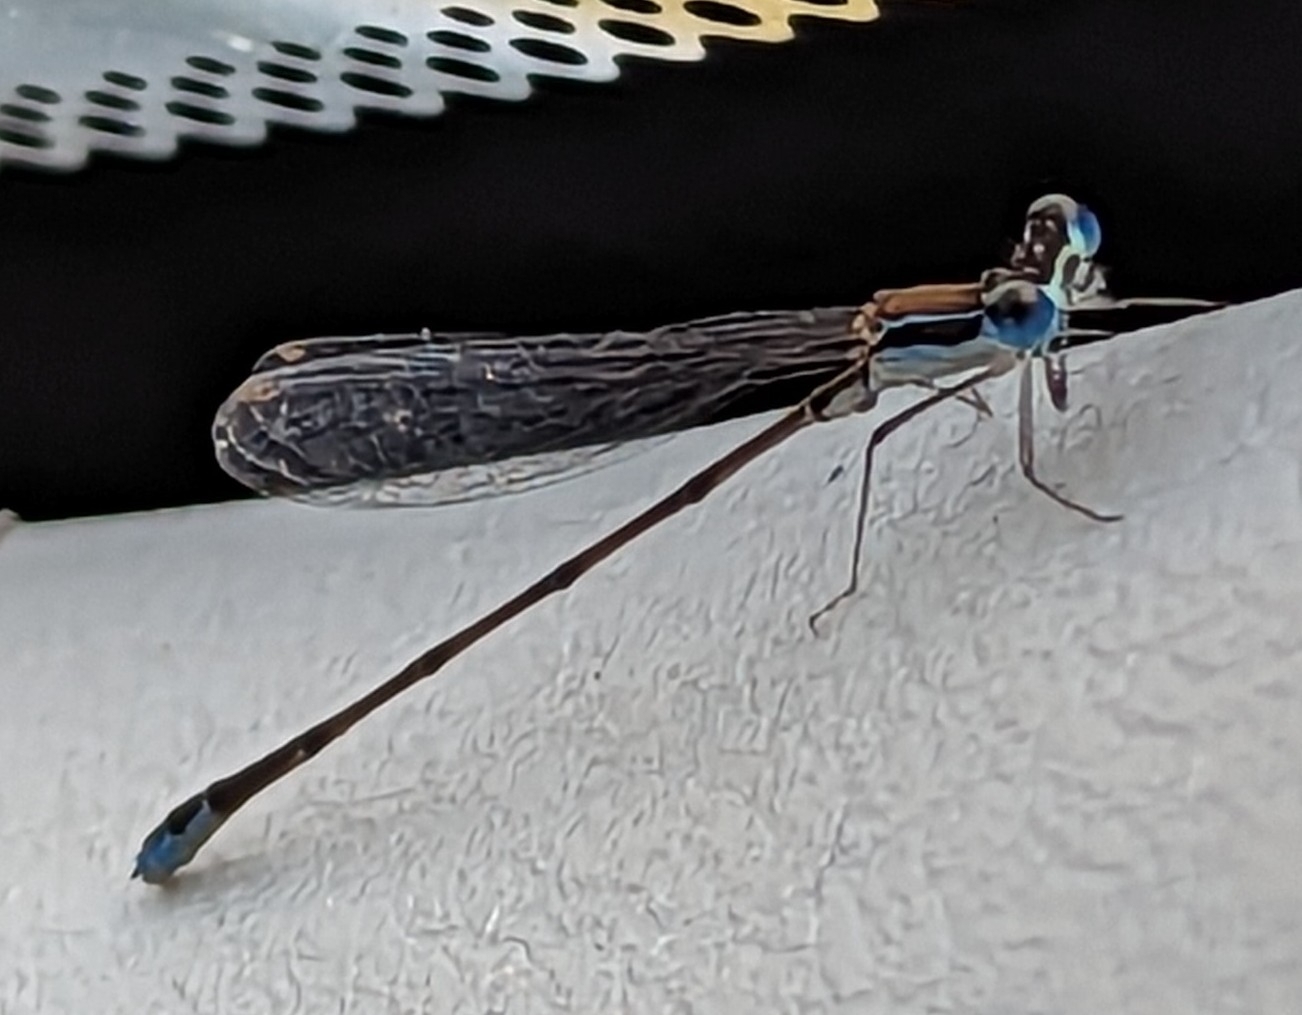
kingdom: Animalia
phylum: Arthropoda
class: Insecta
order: Odonata
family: Coenagrionidae
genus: Nehalennia
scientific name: Nehalennia pallidula
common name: Everglades sprite
